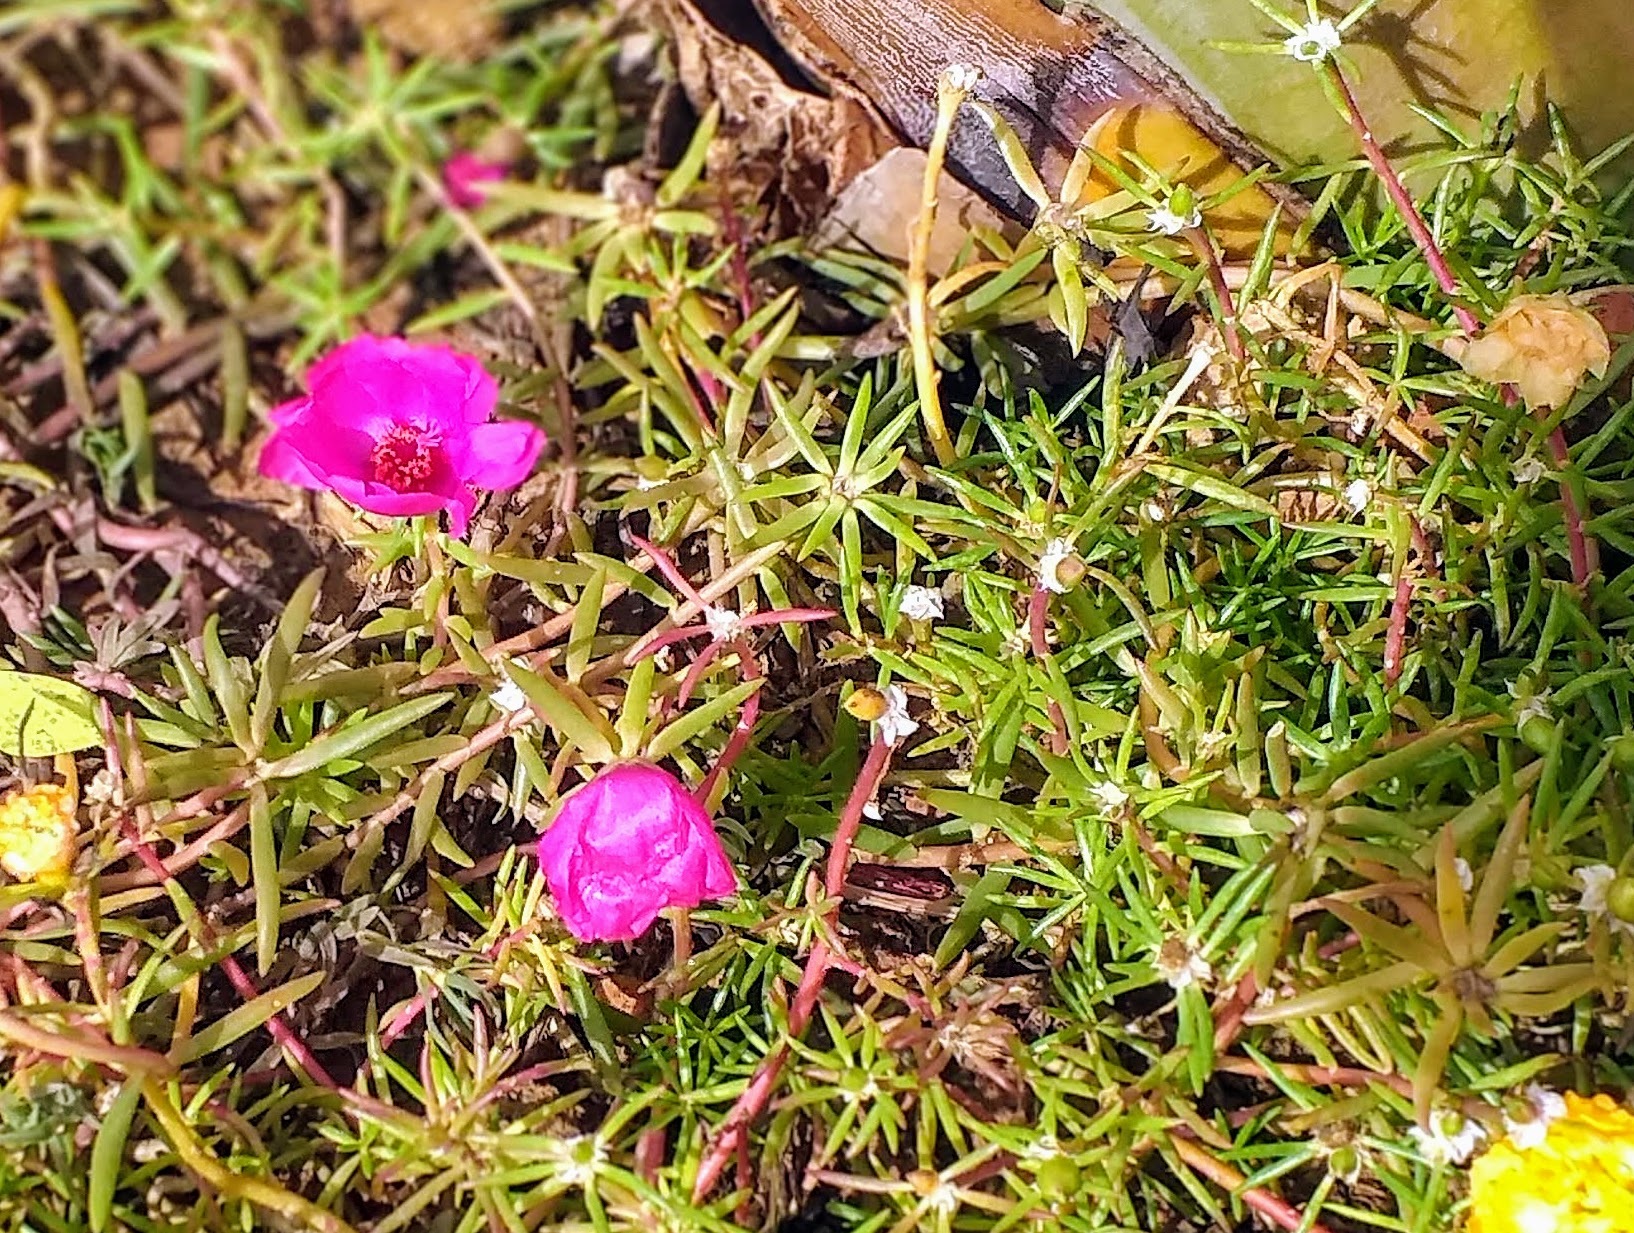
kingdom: Plantae
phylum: Tracheophyta
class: Magnoliopsida
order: Caryophyllales
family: Portulacaceae
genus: Portulaca
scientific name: Portulaca grandiflora
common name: Moss-rose
